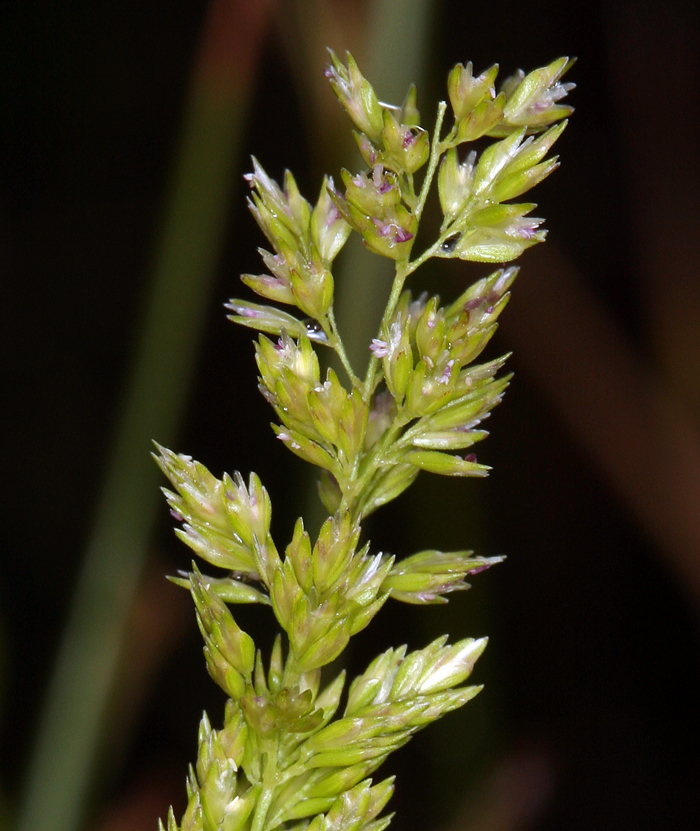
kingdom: Plantae
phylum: Tracheophyta
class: Liliopsida
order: Poales
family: Poaceae
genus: Sphenopholis
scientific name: Sphenopholis obtusata
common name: Prairie grass
